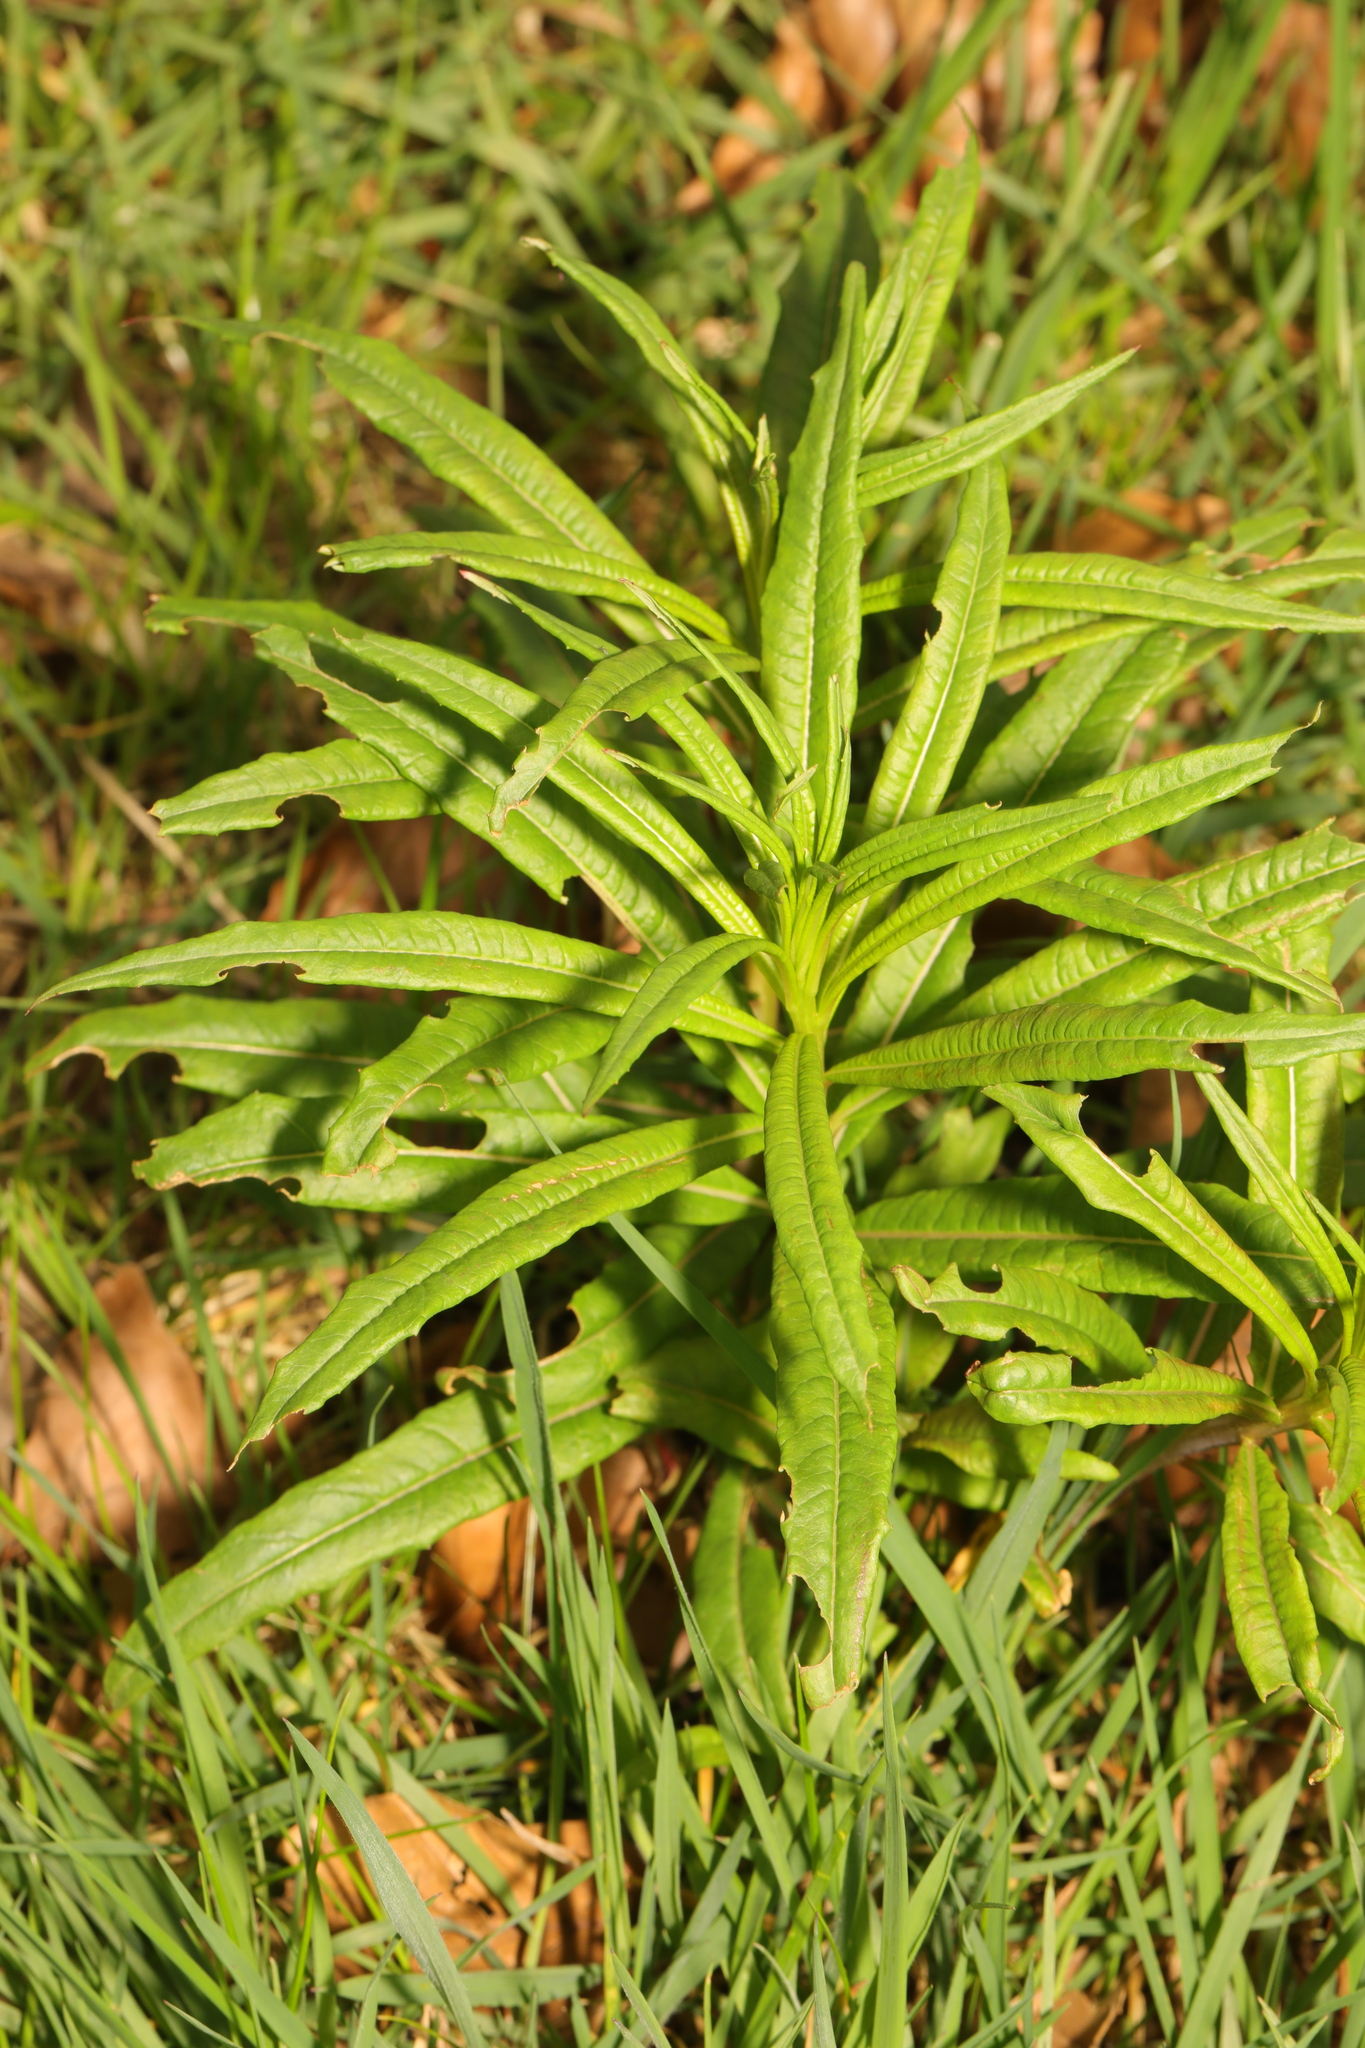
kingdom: Plantae
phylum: Tracheophyta
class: Magnoliopsida
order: Myrtales
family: Onagraceae
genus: Chamaenerion
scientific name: Chamaenerion angustifolium
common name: Fireweed
